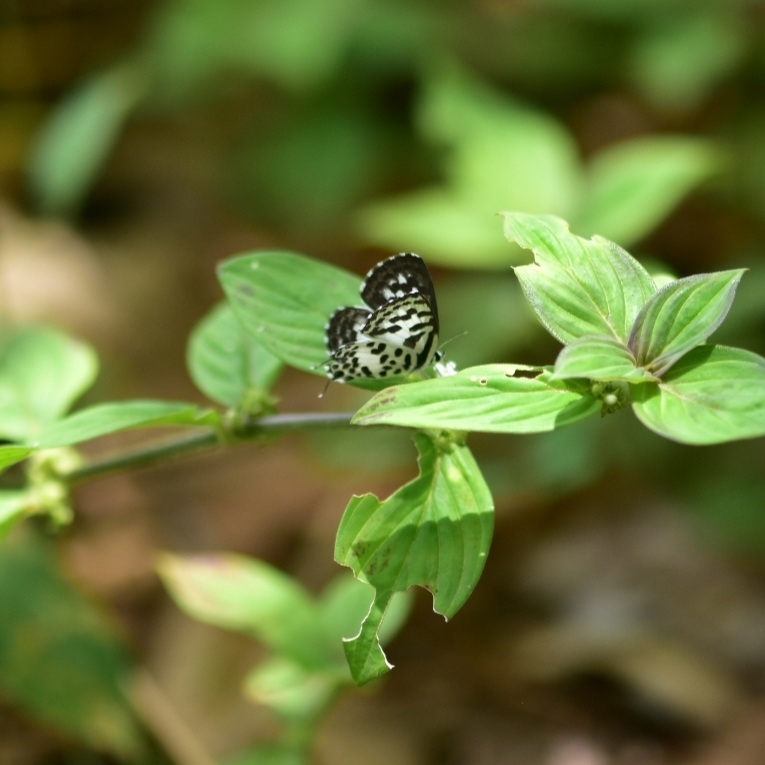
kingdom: Animalia
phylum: Arthropoda
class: Insecta
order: Lepidoptera
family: Lycaenidae
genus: Castalius
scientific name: Castalius rosimon
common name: Common pierrot
